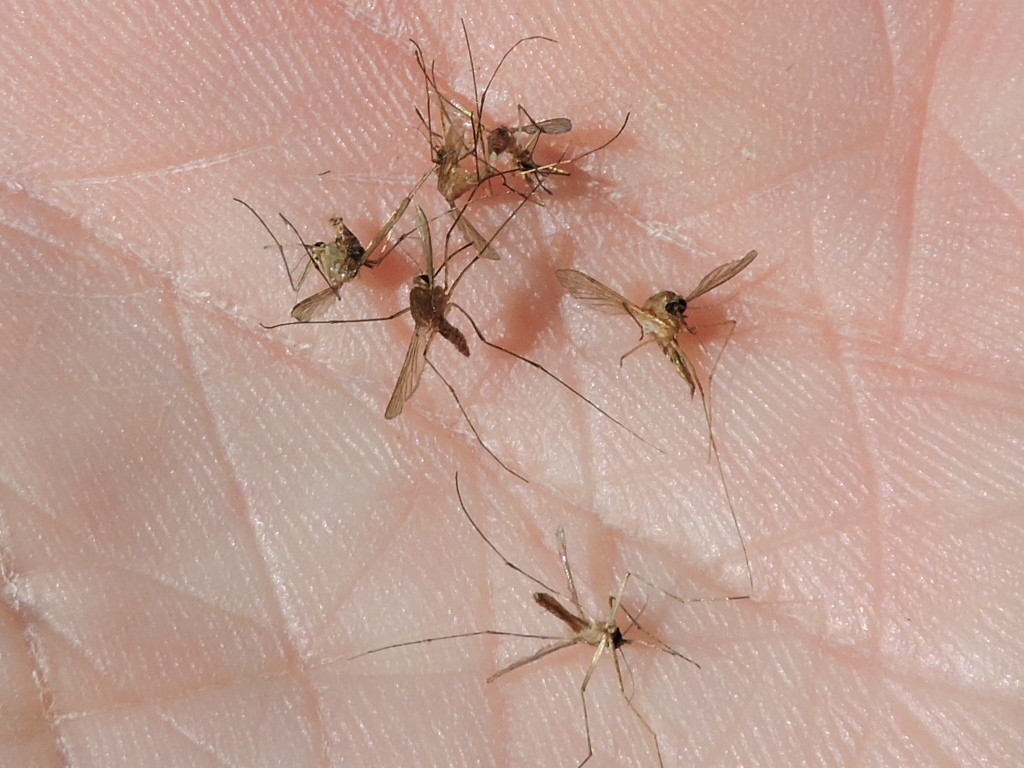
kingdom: Animalia
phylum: Arthropoda
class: Insecta
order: Diptera
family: Culicidae
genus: Culex
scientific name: Culex quinquefasciatus
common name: Southern house mosquito
